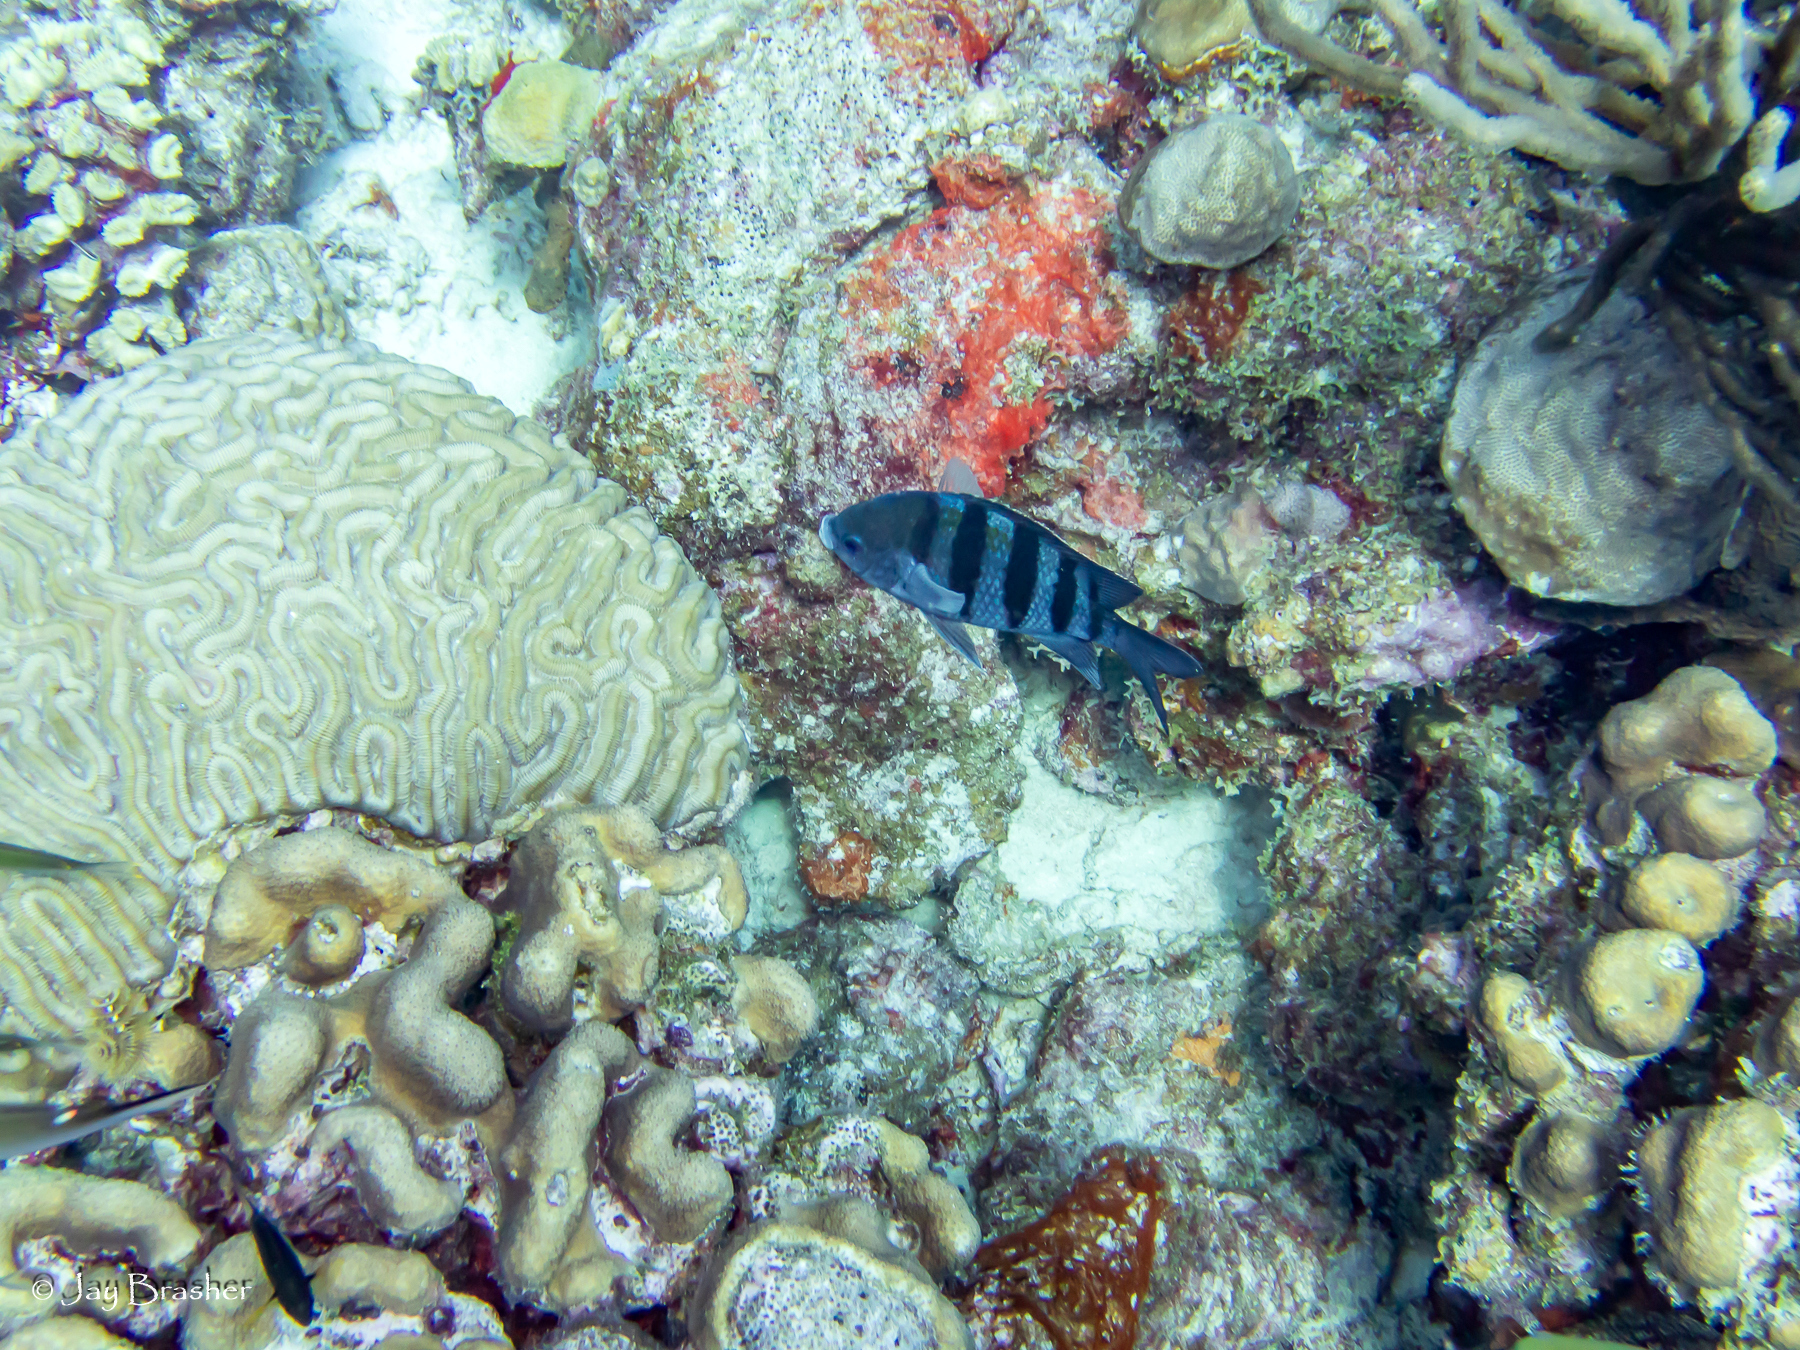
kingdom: Animalia
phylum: Cnidaria
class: Anthozoa
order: Scleractinia
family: Faviidae
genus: Colpophyllia
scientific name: Colpophyllia natans
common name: Boulder brain coral
